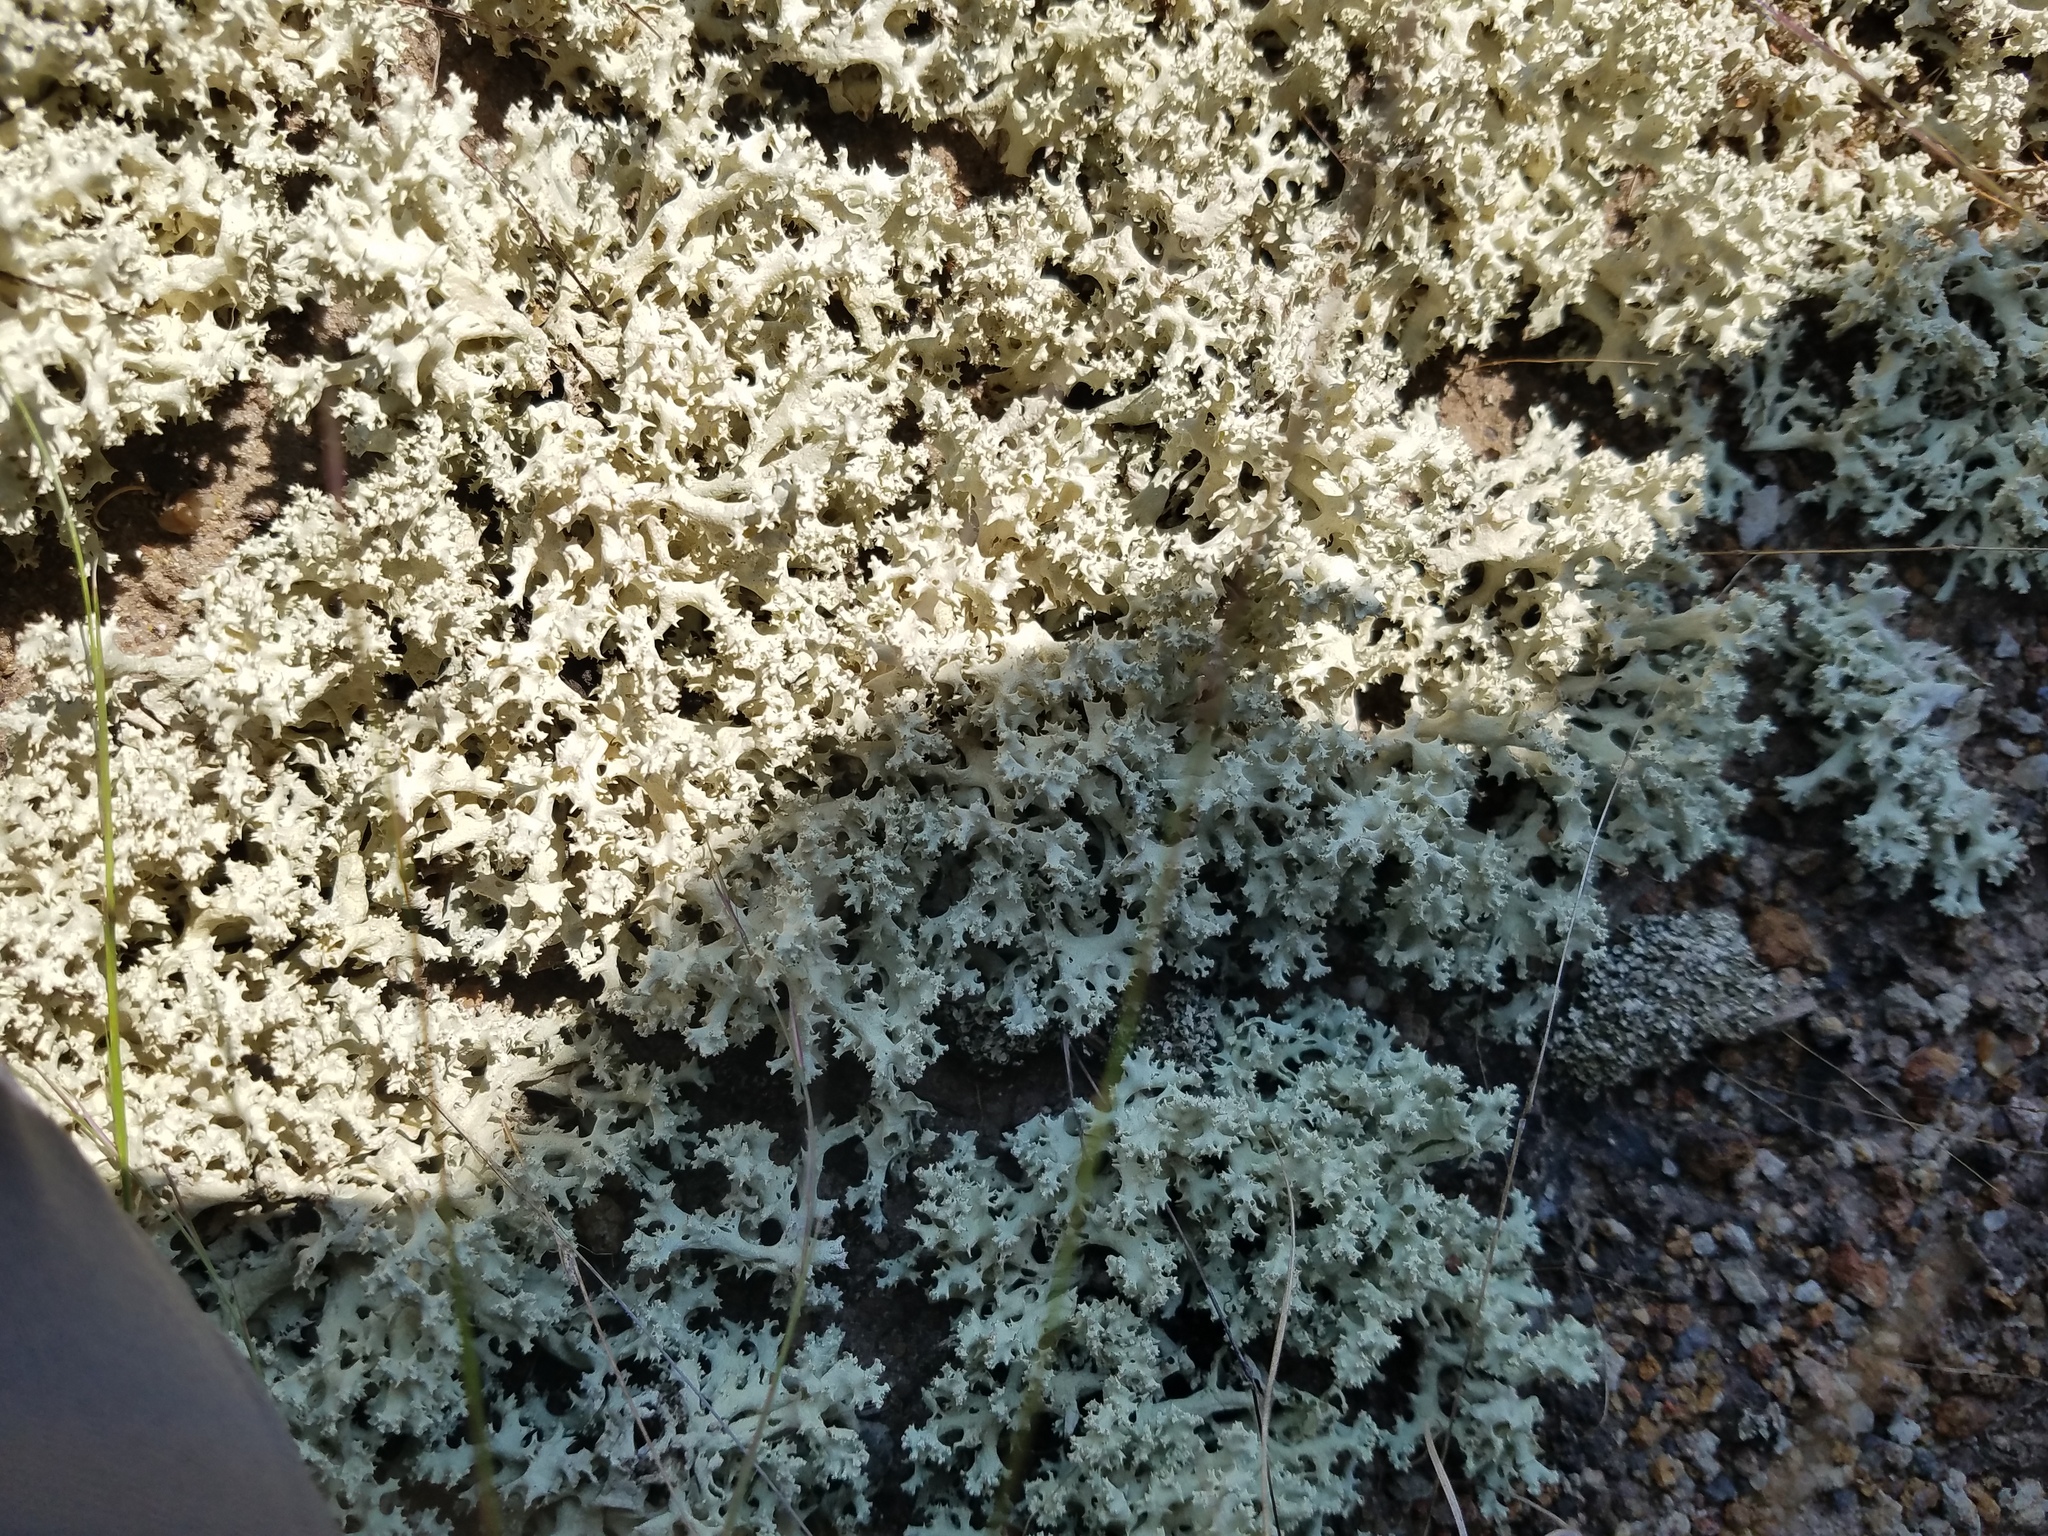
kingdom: Fungi
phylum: Ascomycota
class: Lecanoromycetes
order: Lecanorales
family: Cladoniaceae
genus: Cladonia
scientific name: Cladonia caroliniana
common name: Granite thorn
